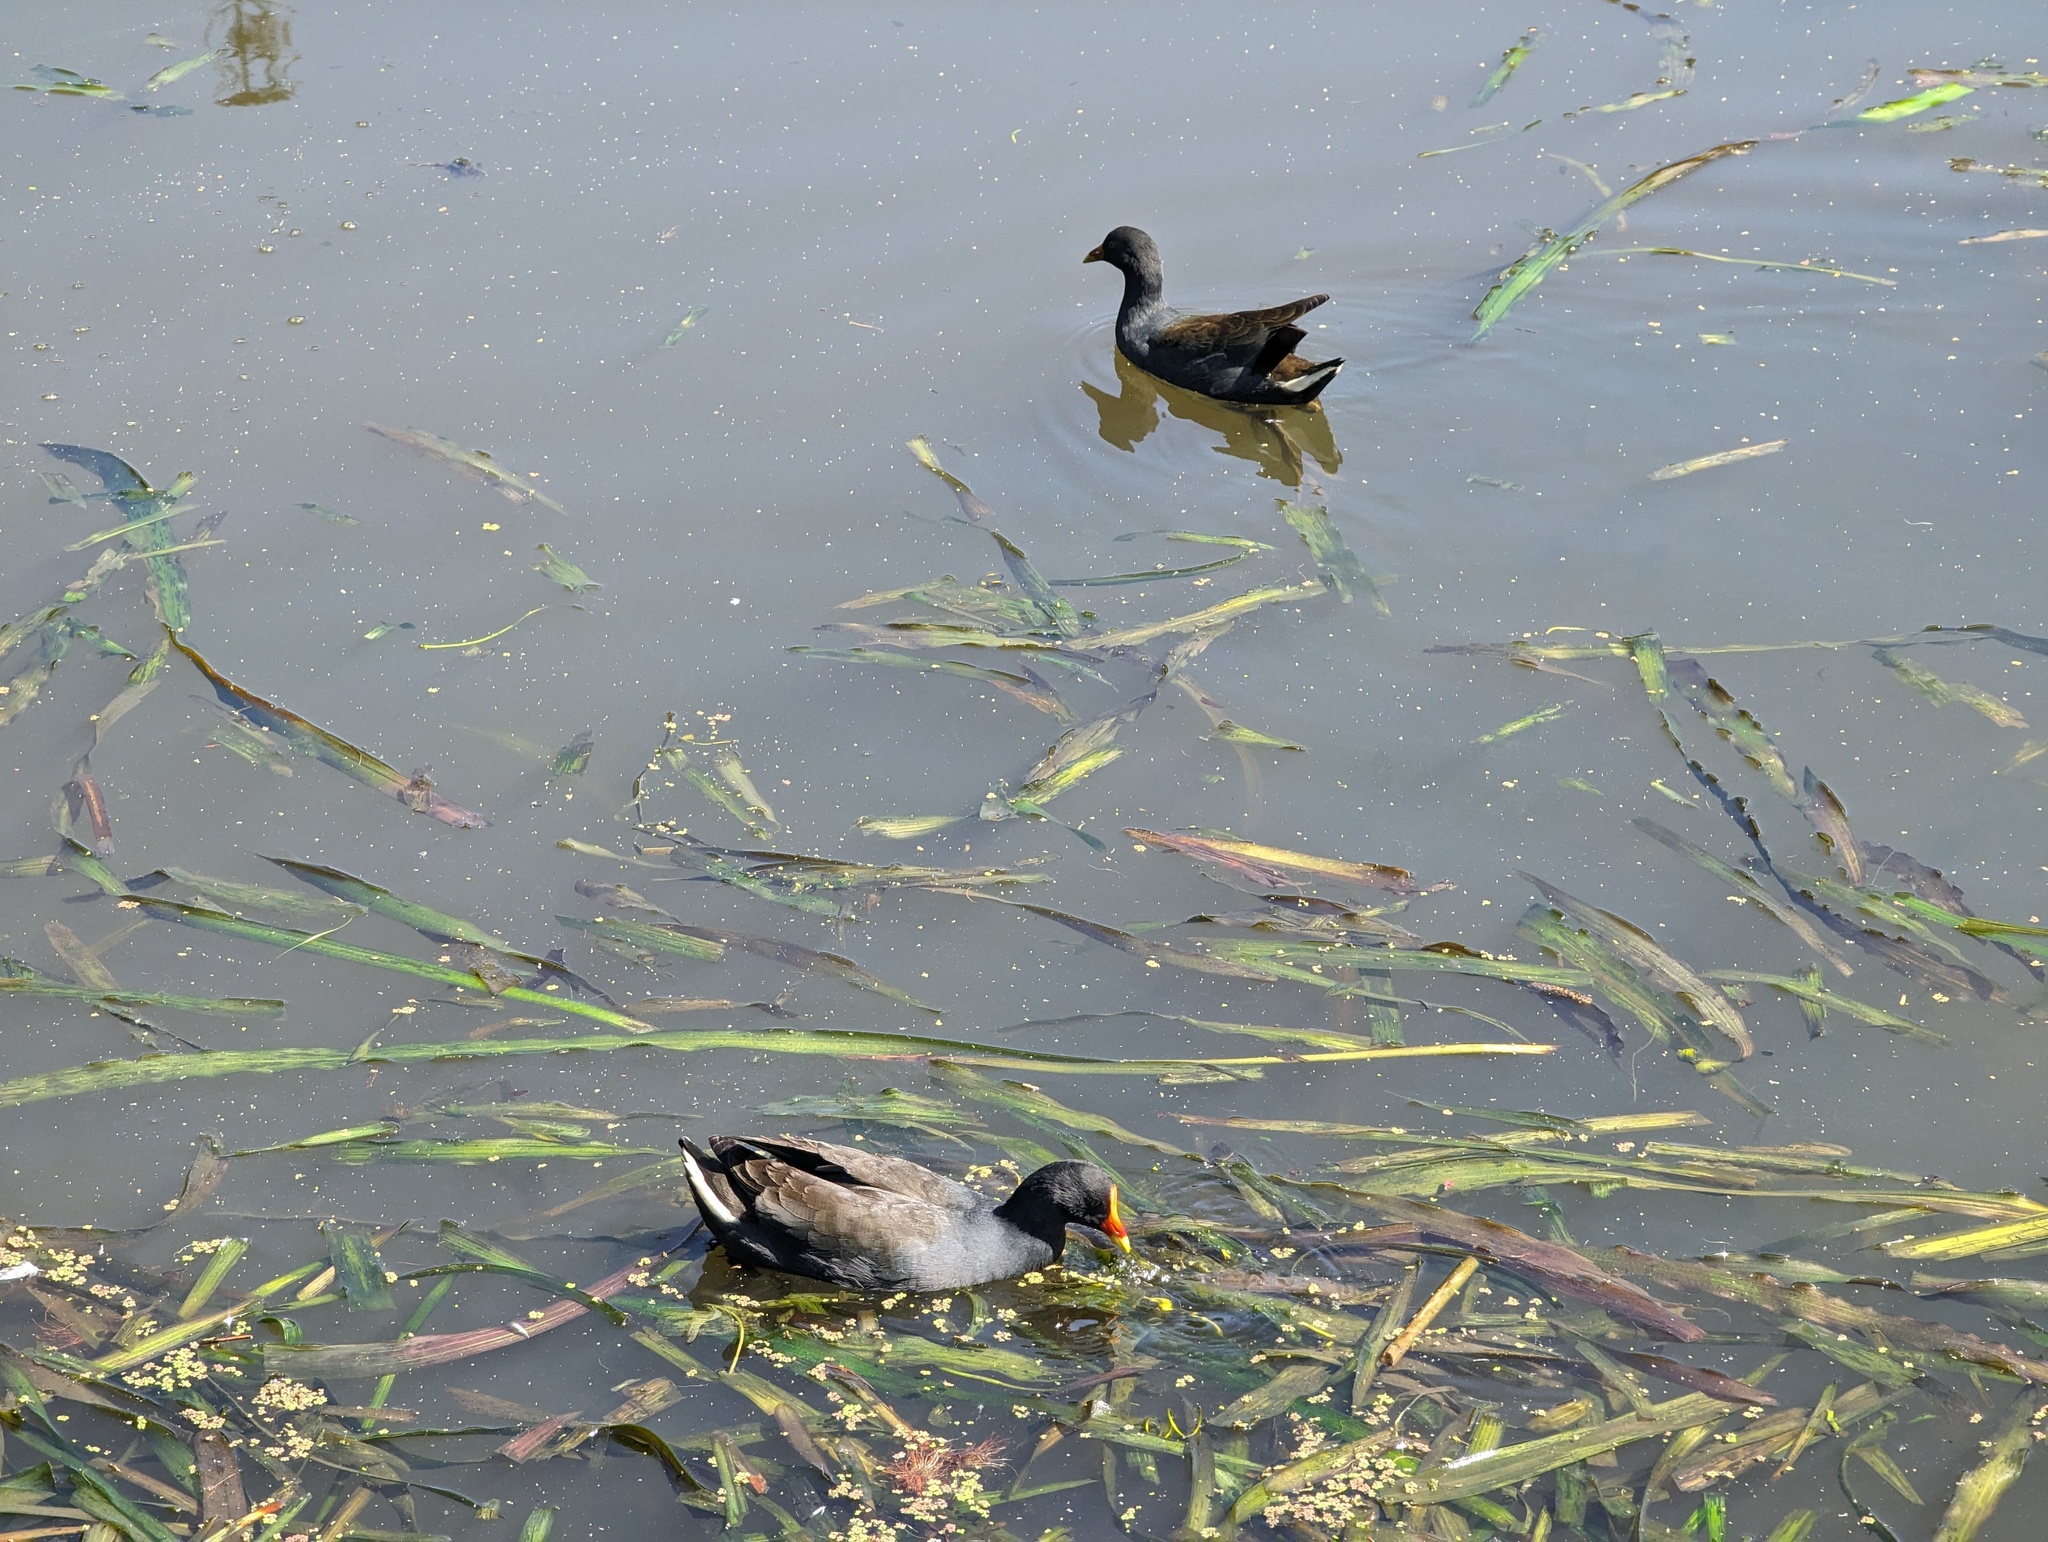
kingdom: Animalia
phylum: Chordata
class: Aves
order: Gruiformes
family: Rallidae
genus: Gallinula
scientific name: Gallinula tenebrosa
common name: Dusky moorhen
